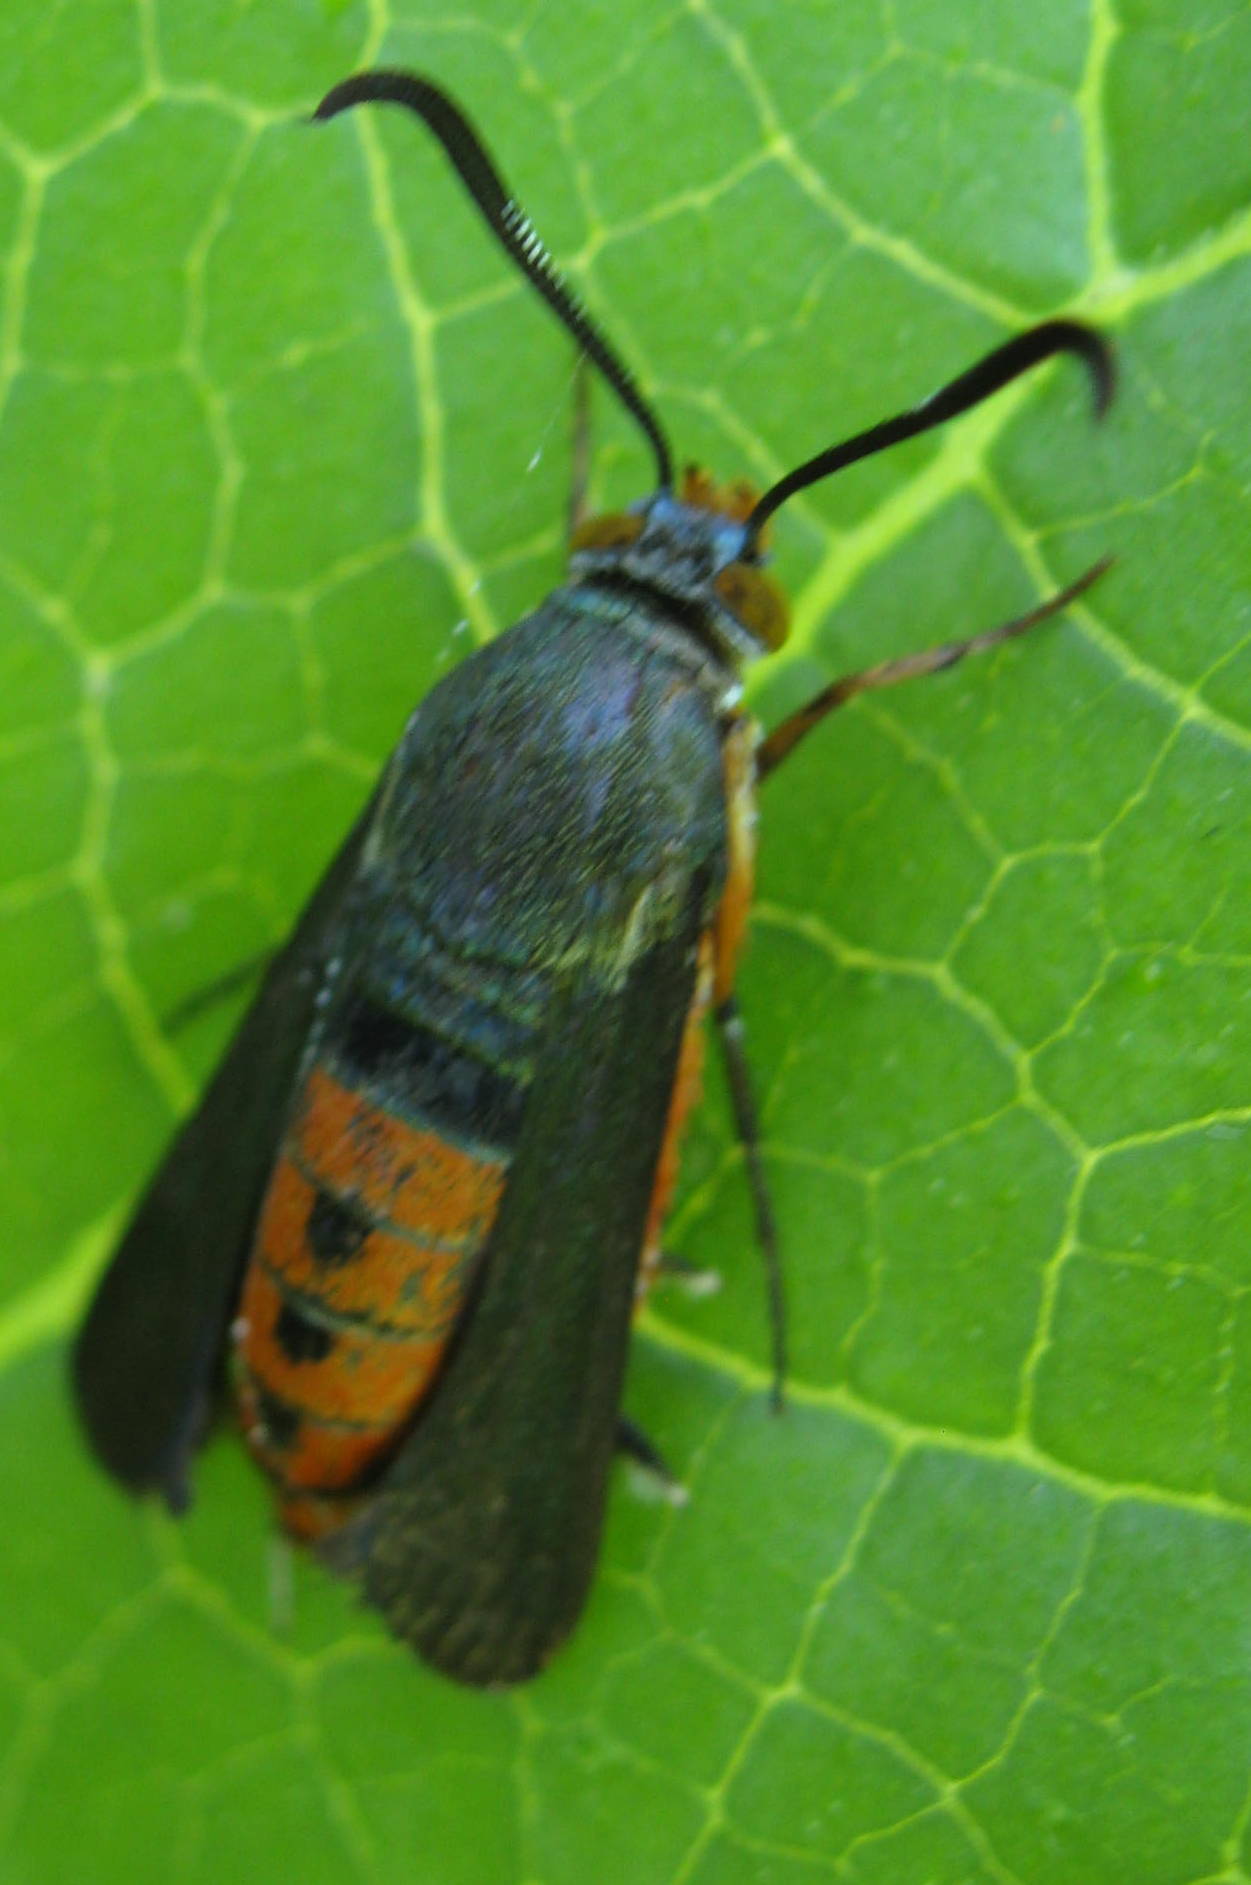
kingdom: Animalia
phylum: Arthropoda
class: Insecta
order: Lepidoptera
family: Sesiidae
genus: Eichlinia
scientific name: Eichlinia cucurbitae
